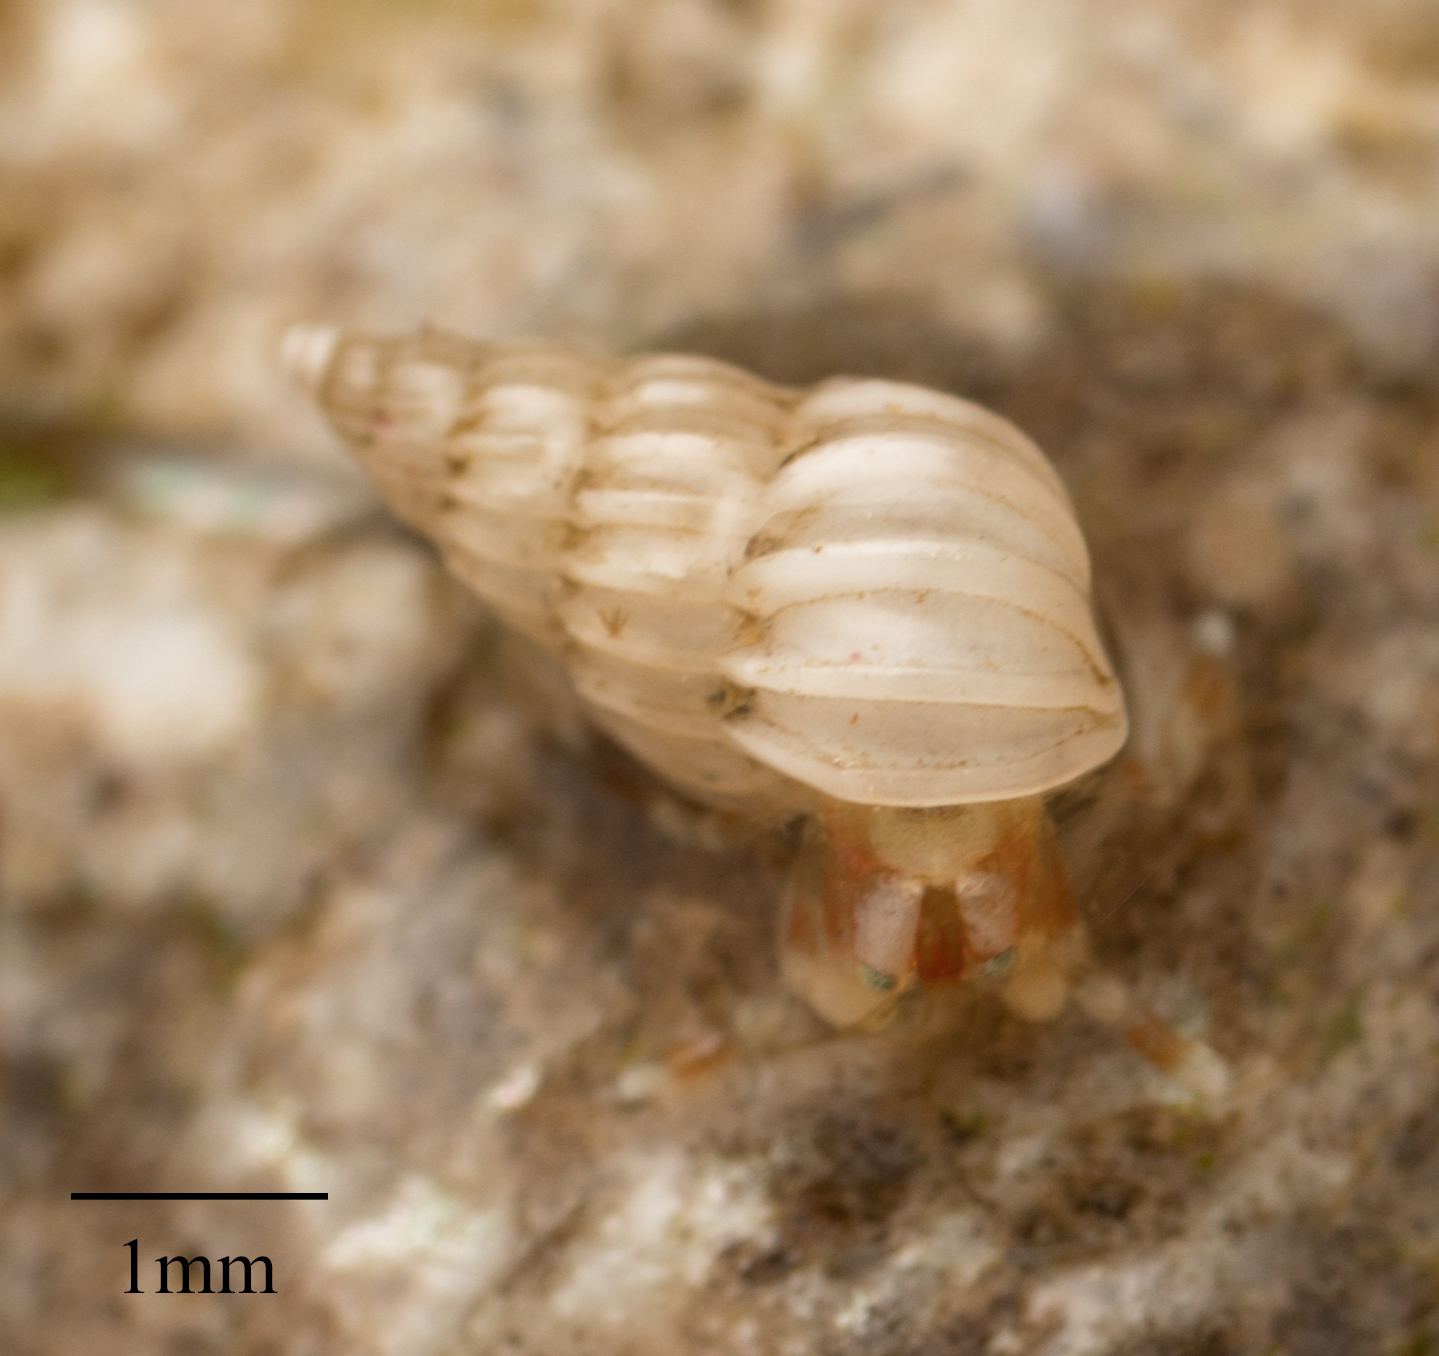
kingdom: Animalia
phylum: Mollusca
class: Gastropoda
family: Epitoniidae
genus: Epitonium
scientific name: Epitonium tinctum
